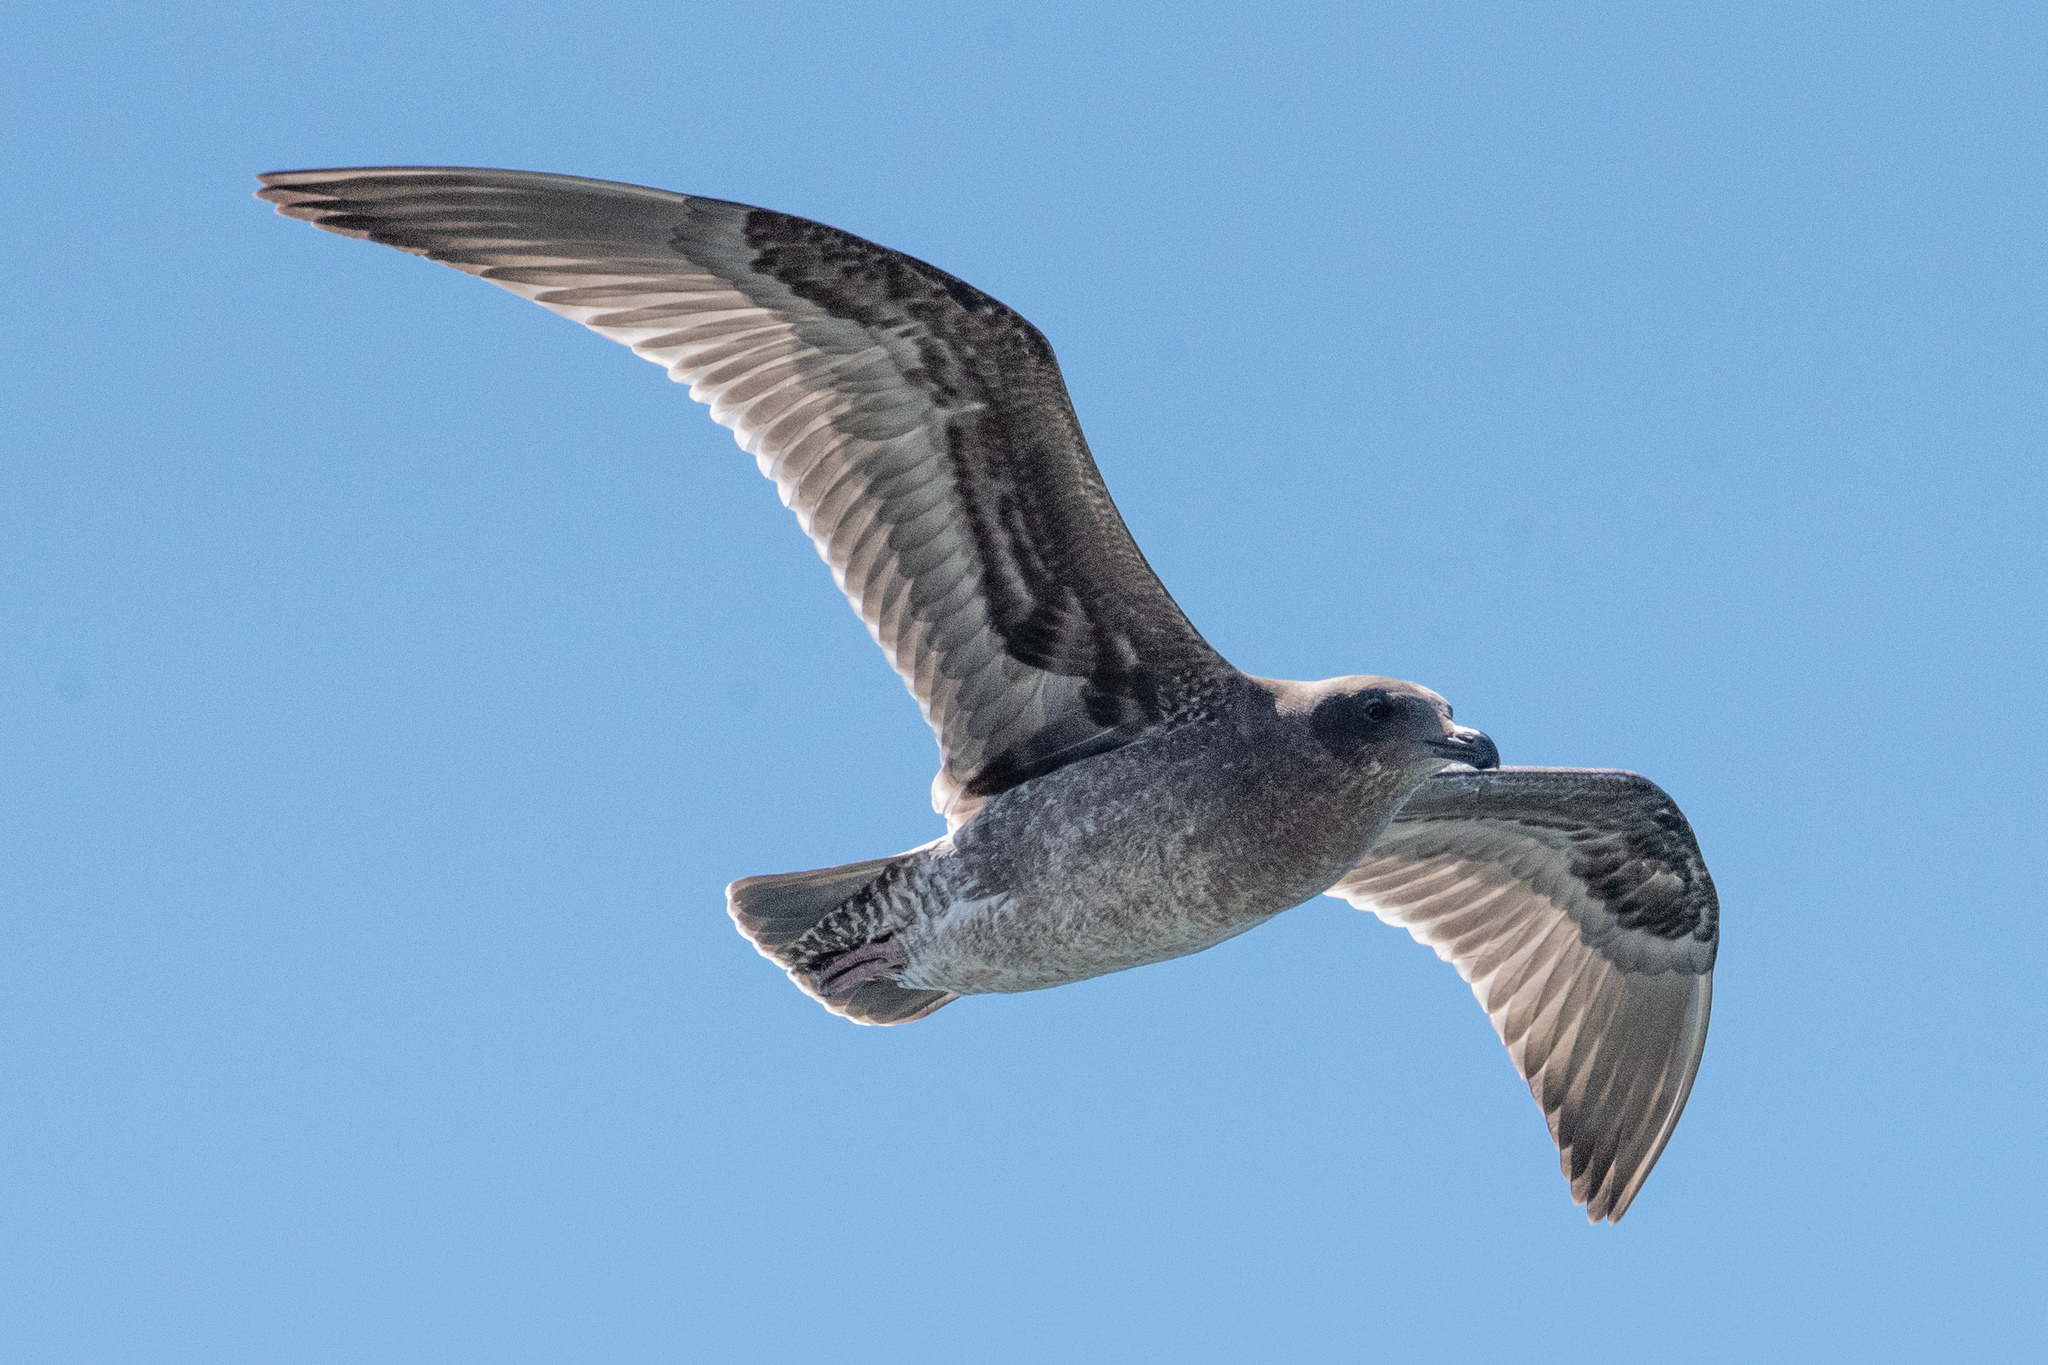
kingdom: Animalia
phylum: Chordata
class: Aves
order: Charadriiformes
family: Laridae
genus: Larus
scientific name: Larus californicus
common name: California gull
